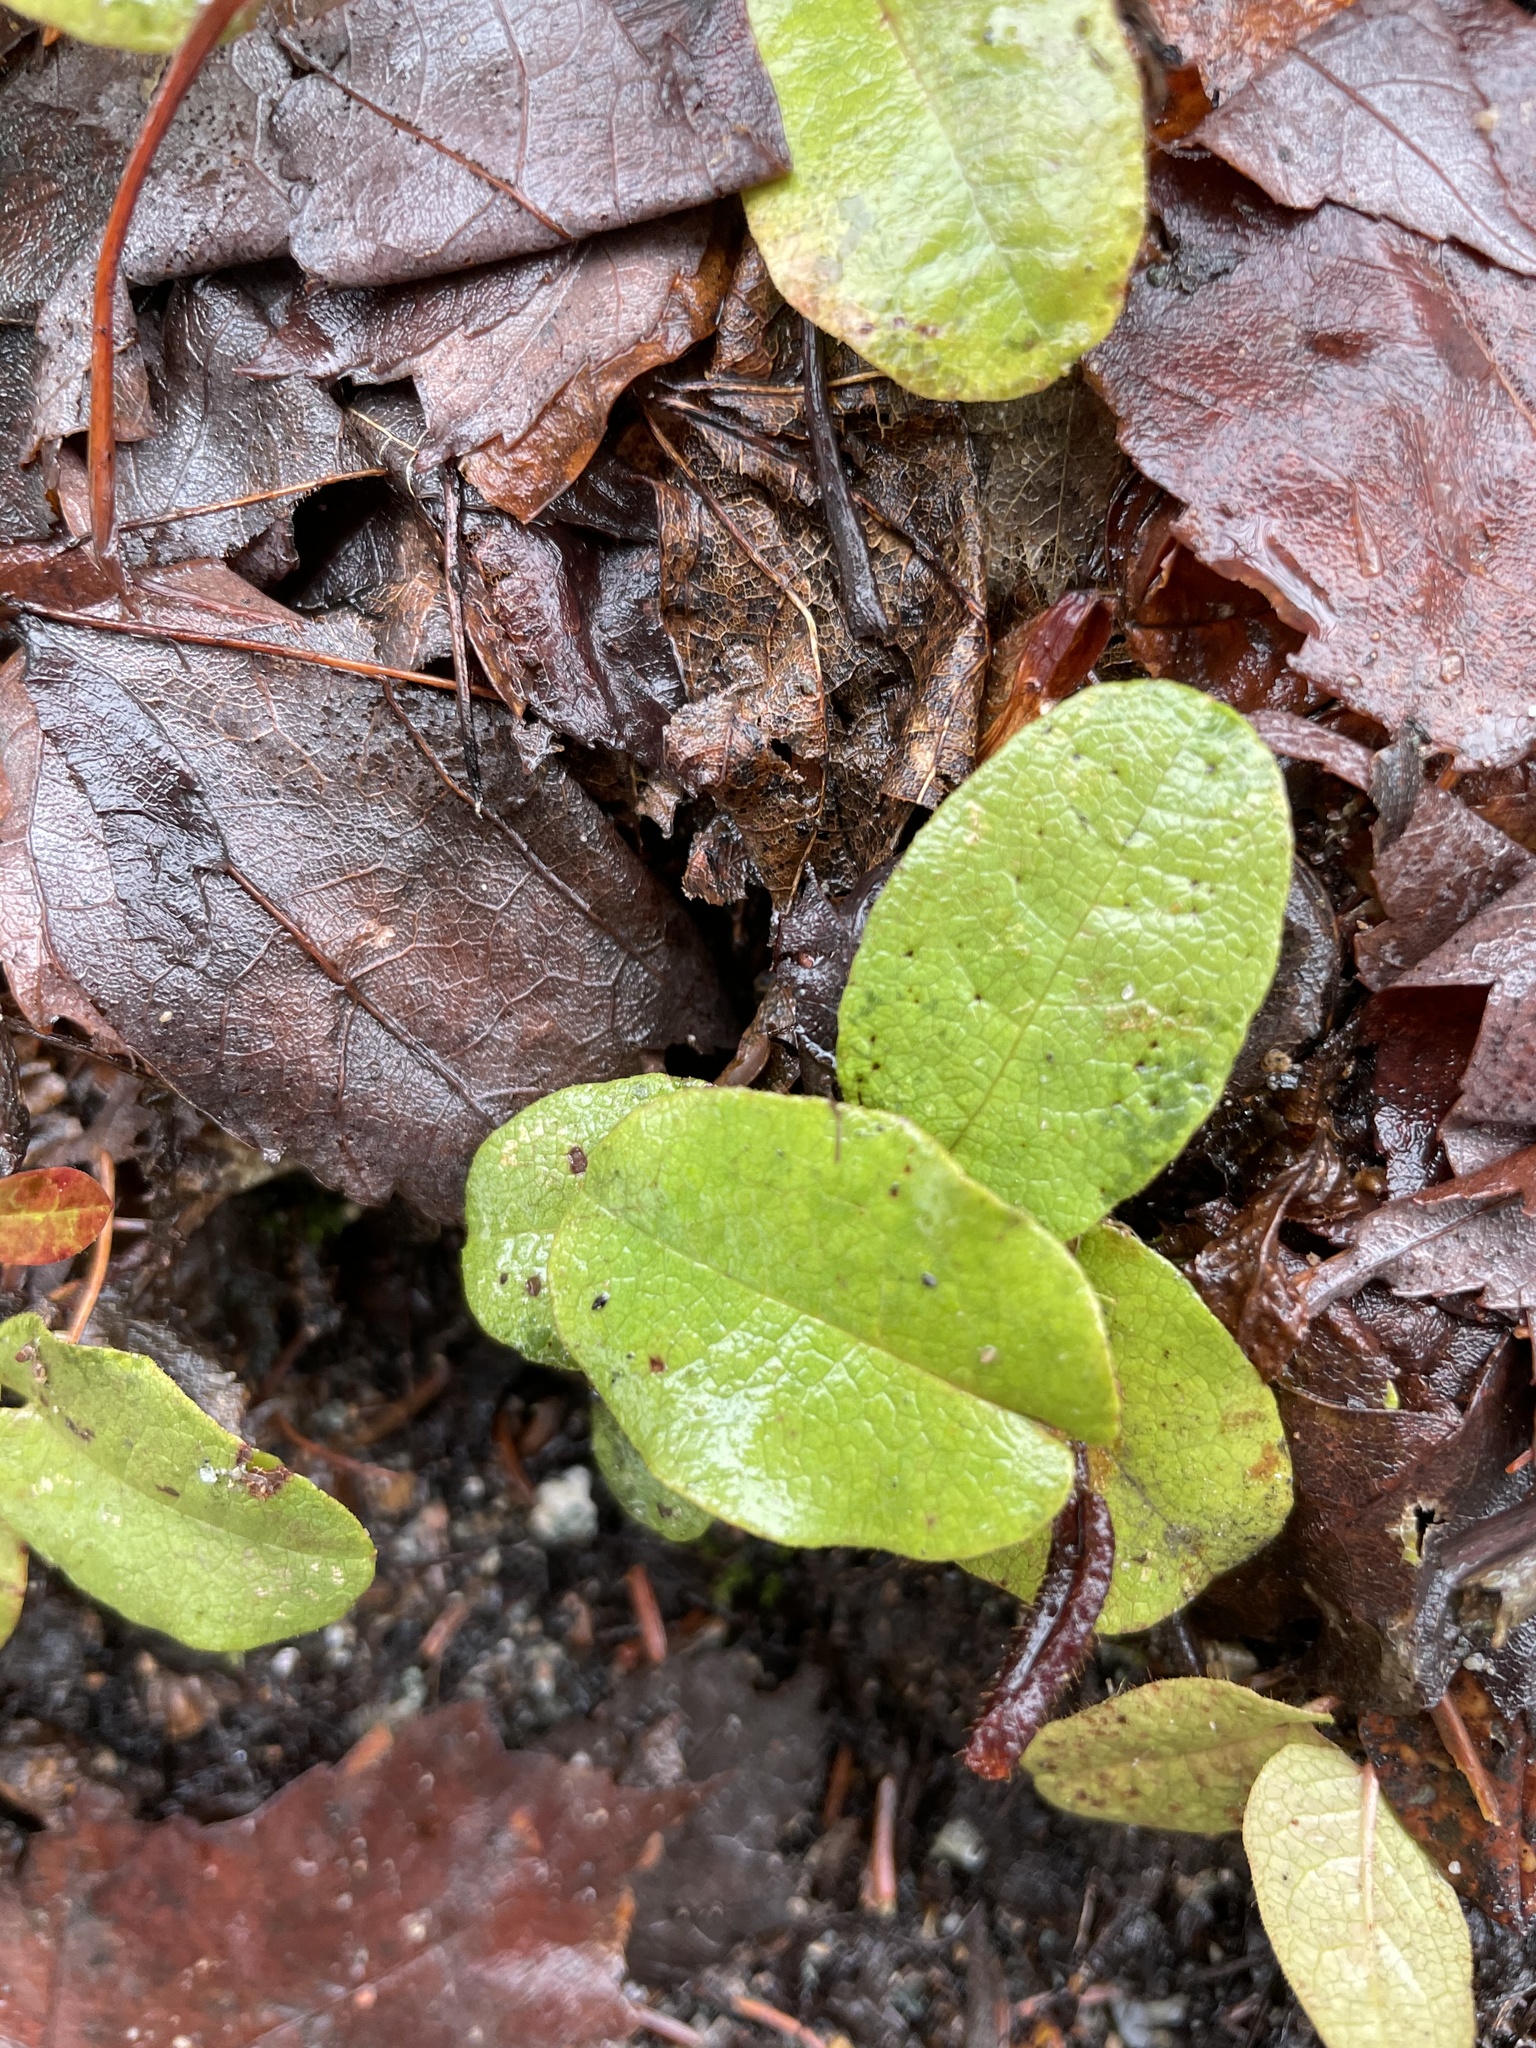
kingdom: Plantae
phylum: Tracheophyta
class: Magnoliopsida
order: Ericales
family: Ericaceae
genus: Epigaea
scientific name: Epigaea repens
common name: Gravelroot
